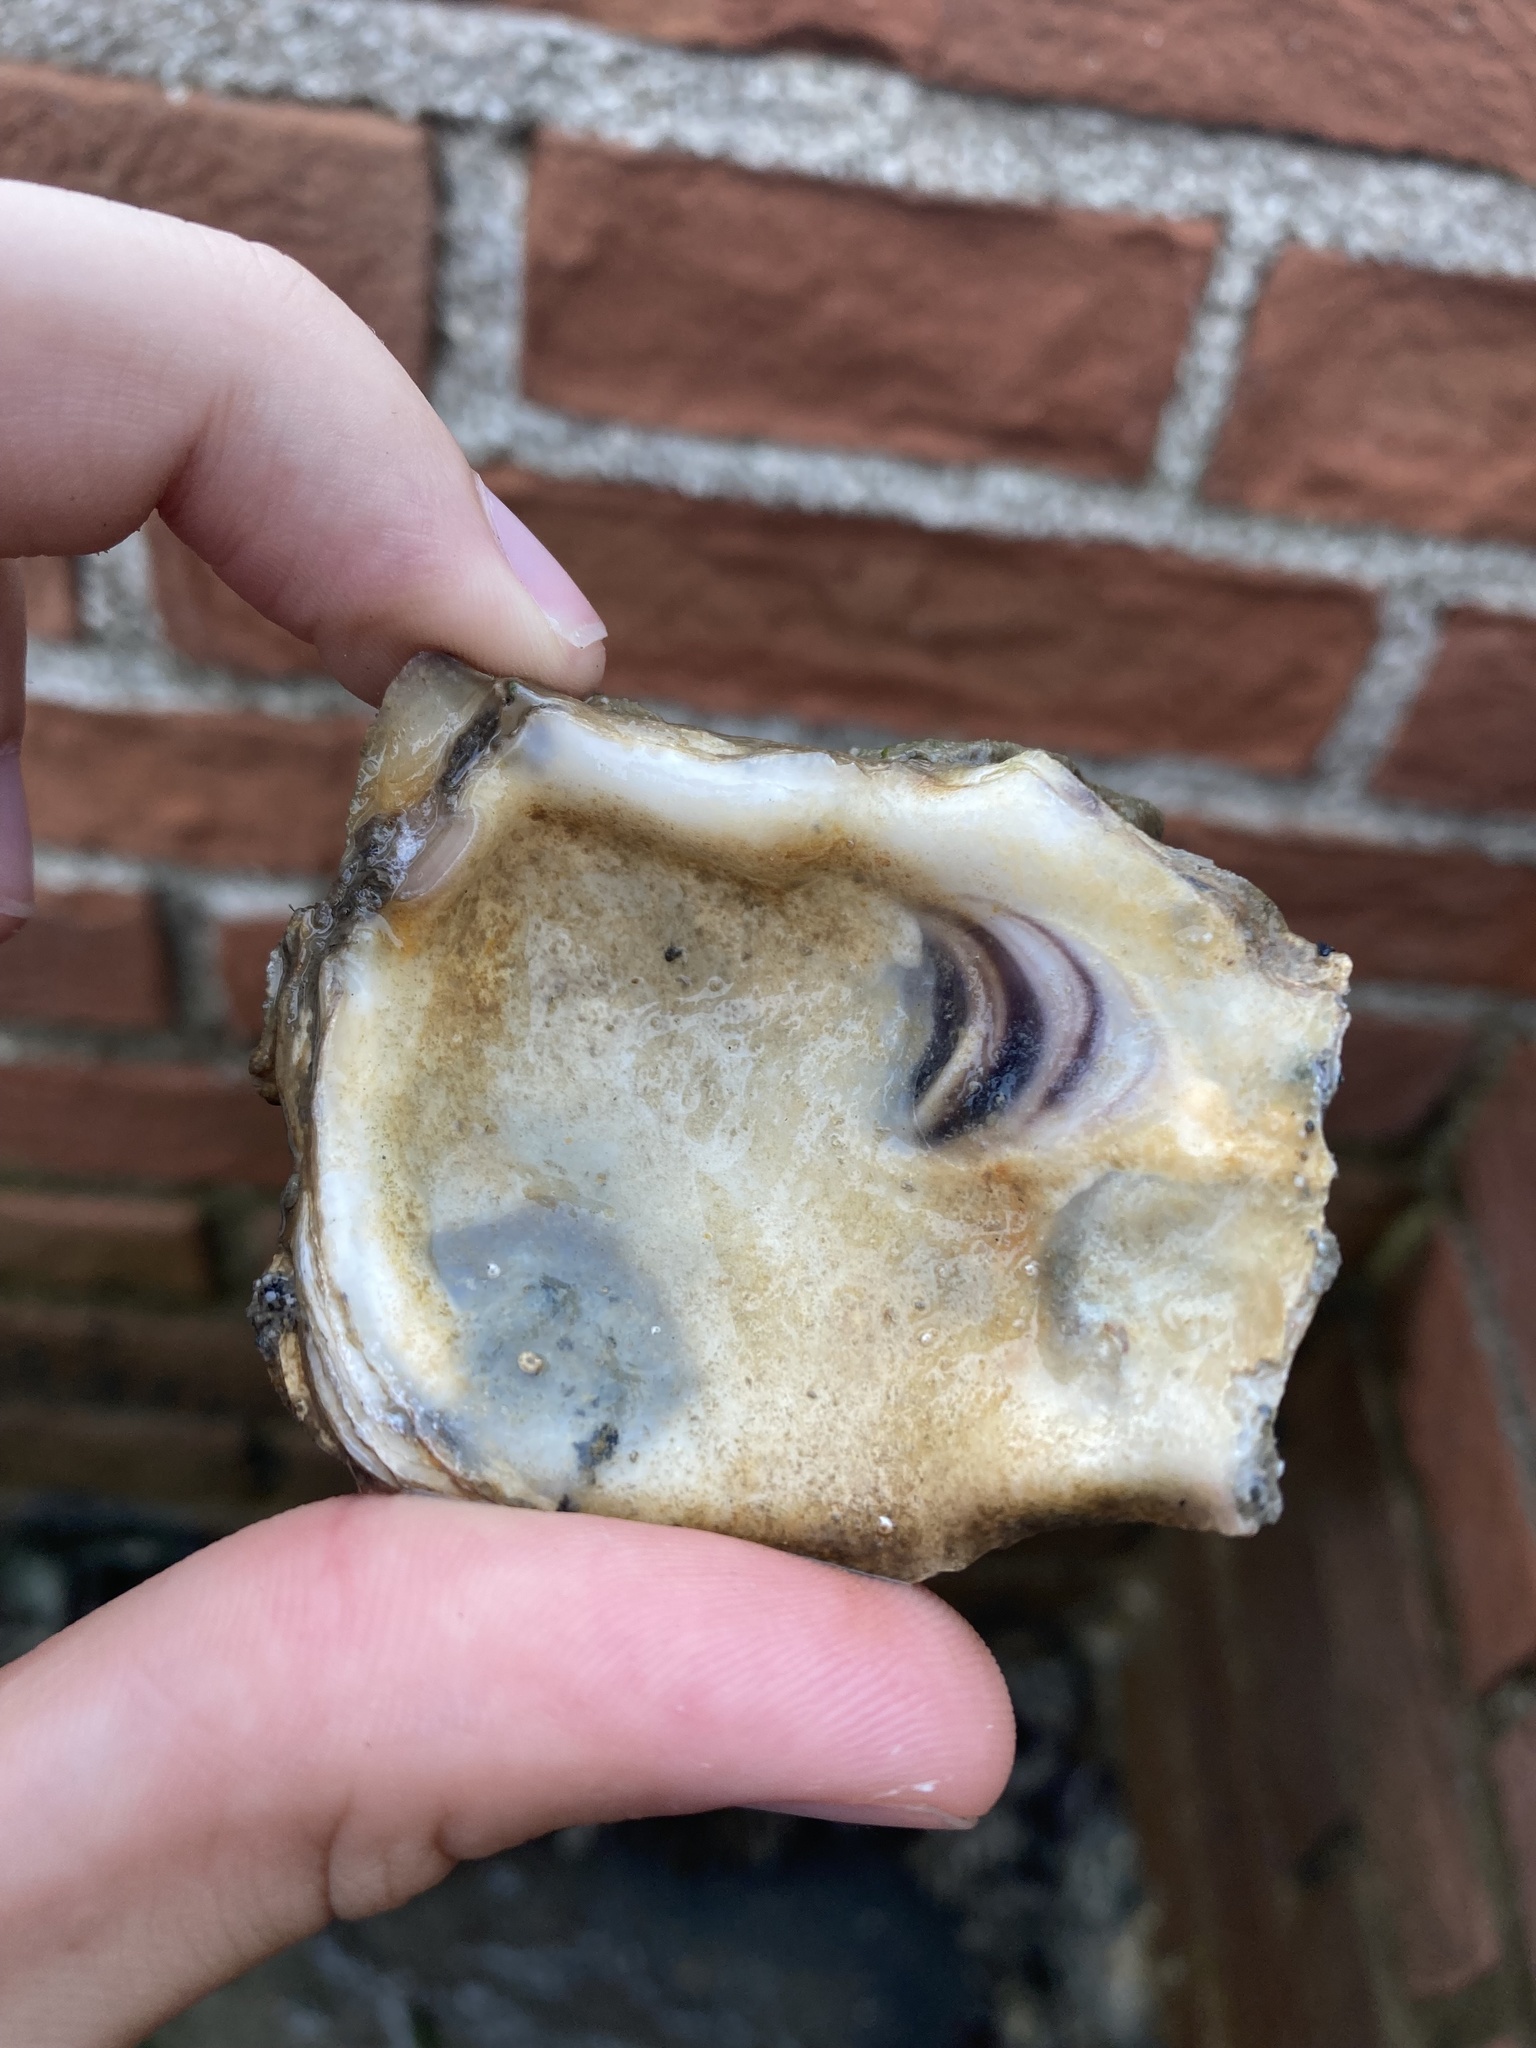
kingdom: Animalia
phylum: Mollusca
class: Bivalvia
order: Ostreida
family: Ostreidae
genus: Magallana
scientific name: Magallana gigas
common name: Pacific oyster
